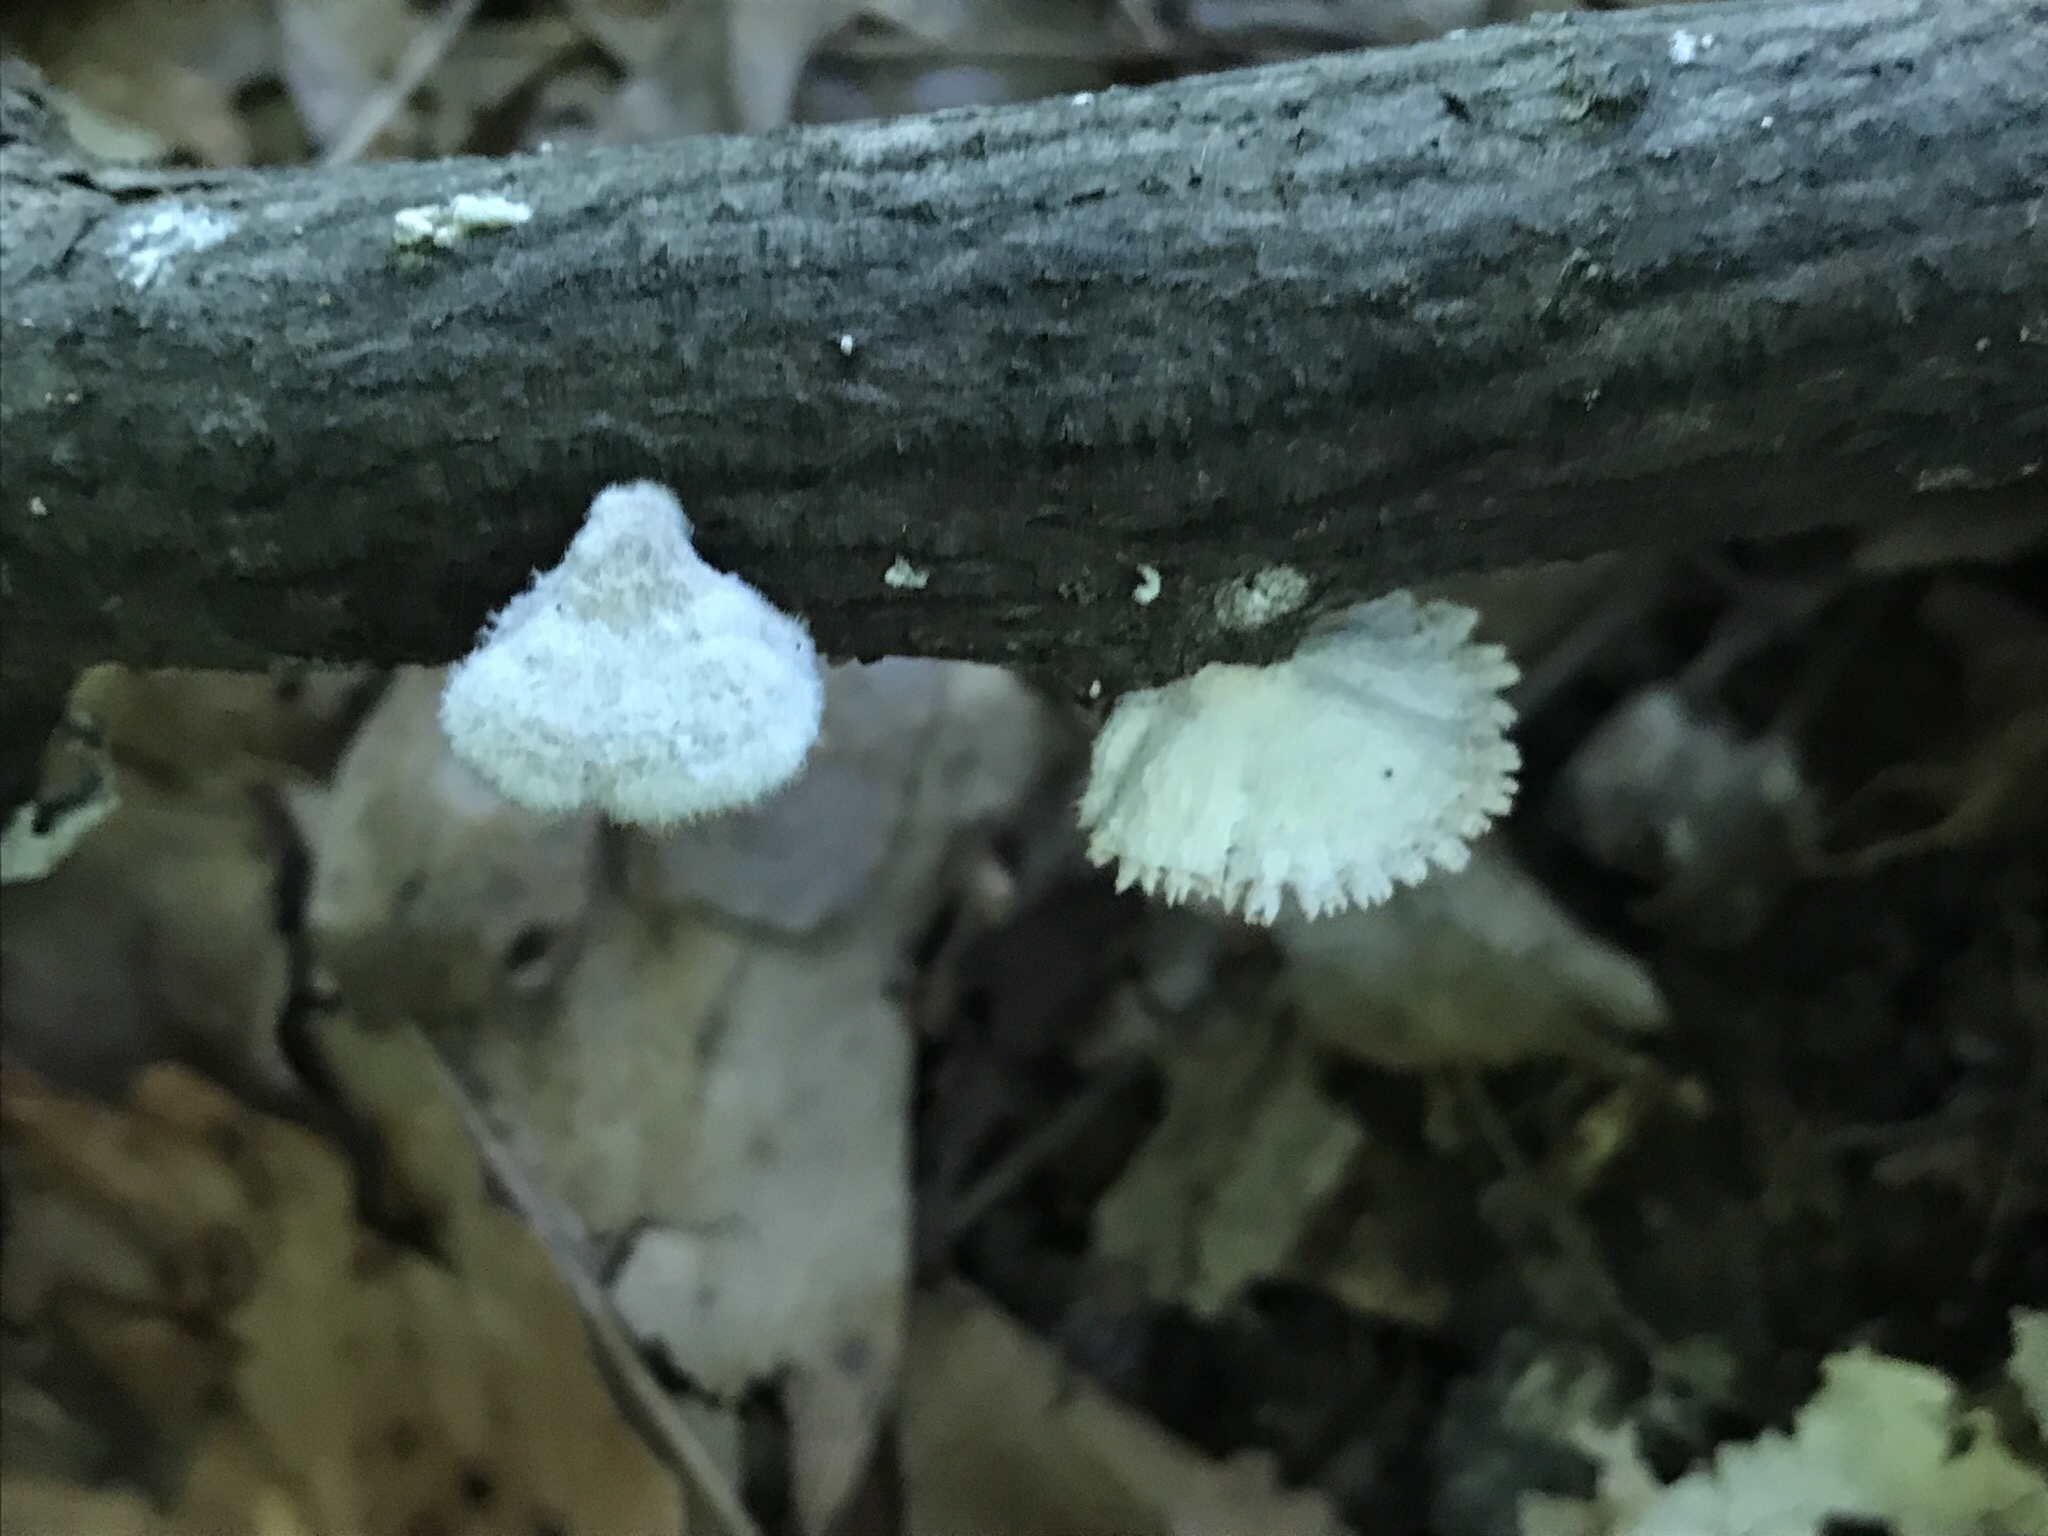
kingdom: Fungi
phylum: Basidiomycota
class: Agaricomycetes
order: Agaricales
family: Schizophyllaceae
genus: Schizophyllum
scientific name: Schizophyllum commune
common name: Common porecrust
